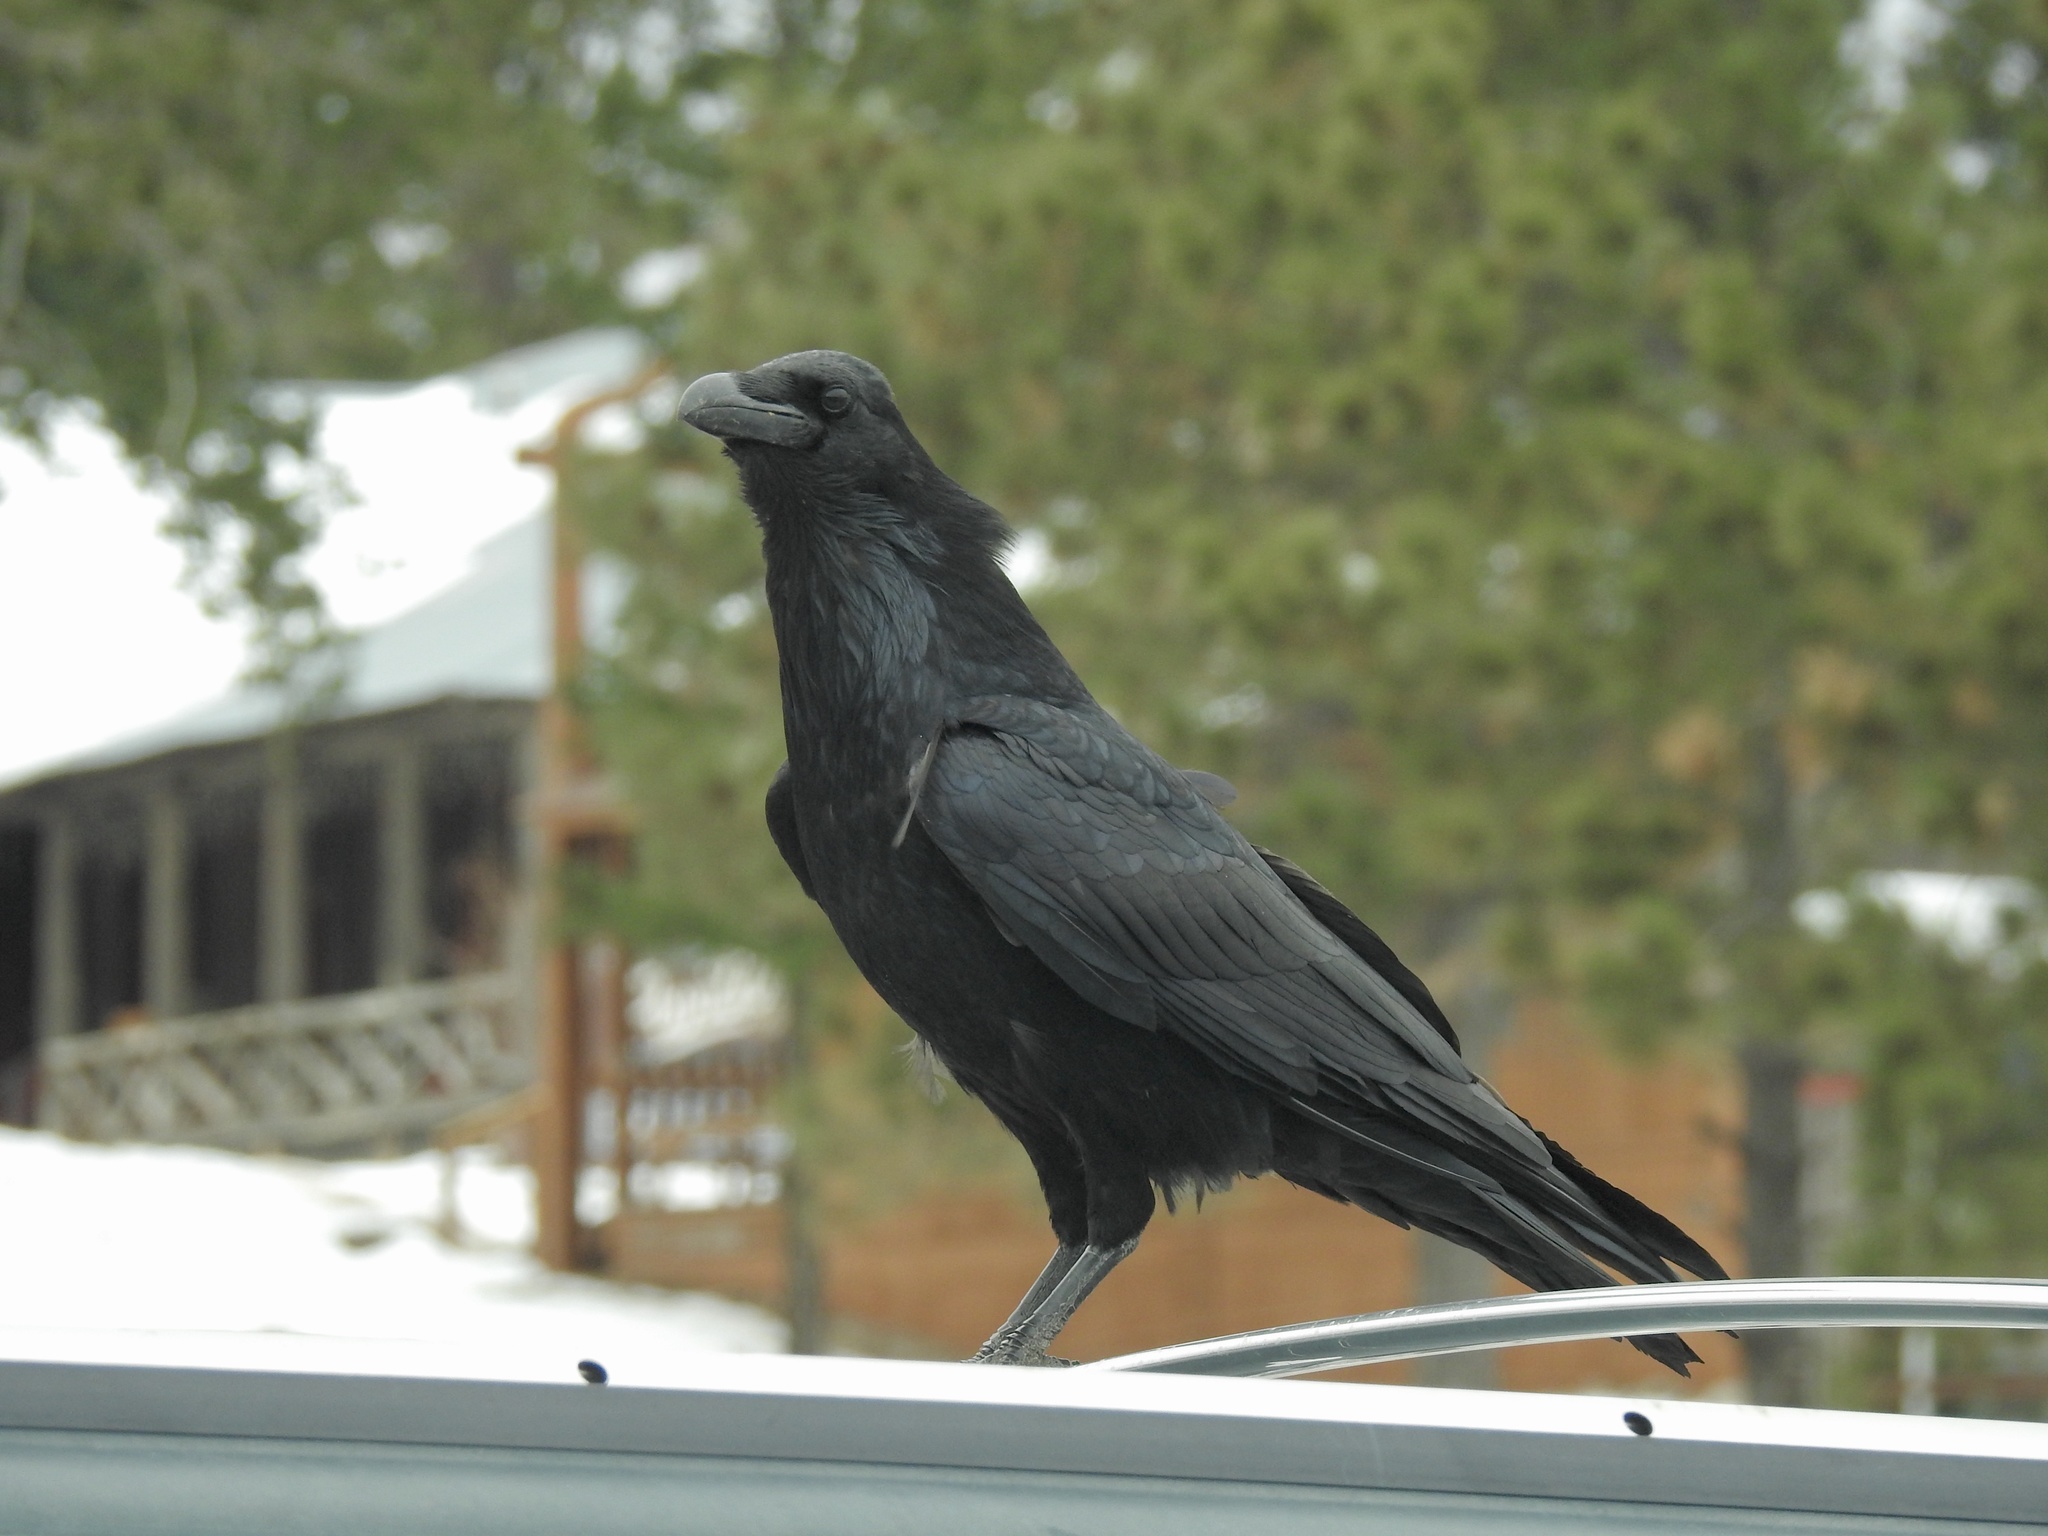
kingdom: Animalia
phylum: Chordata
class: Aves
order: Passeriformes
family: Corvidae
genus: Corvus
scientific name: Corvus corax
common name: Common raven
